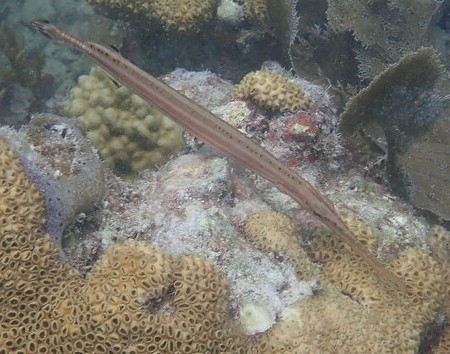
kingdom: Animalia
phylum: Chordata
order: Syngnathiformes
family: Aulostomidae
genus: Aulostomus
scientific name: Aulostomus maculatus
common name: West atlantic trumpetfish
